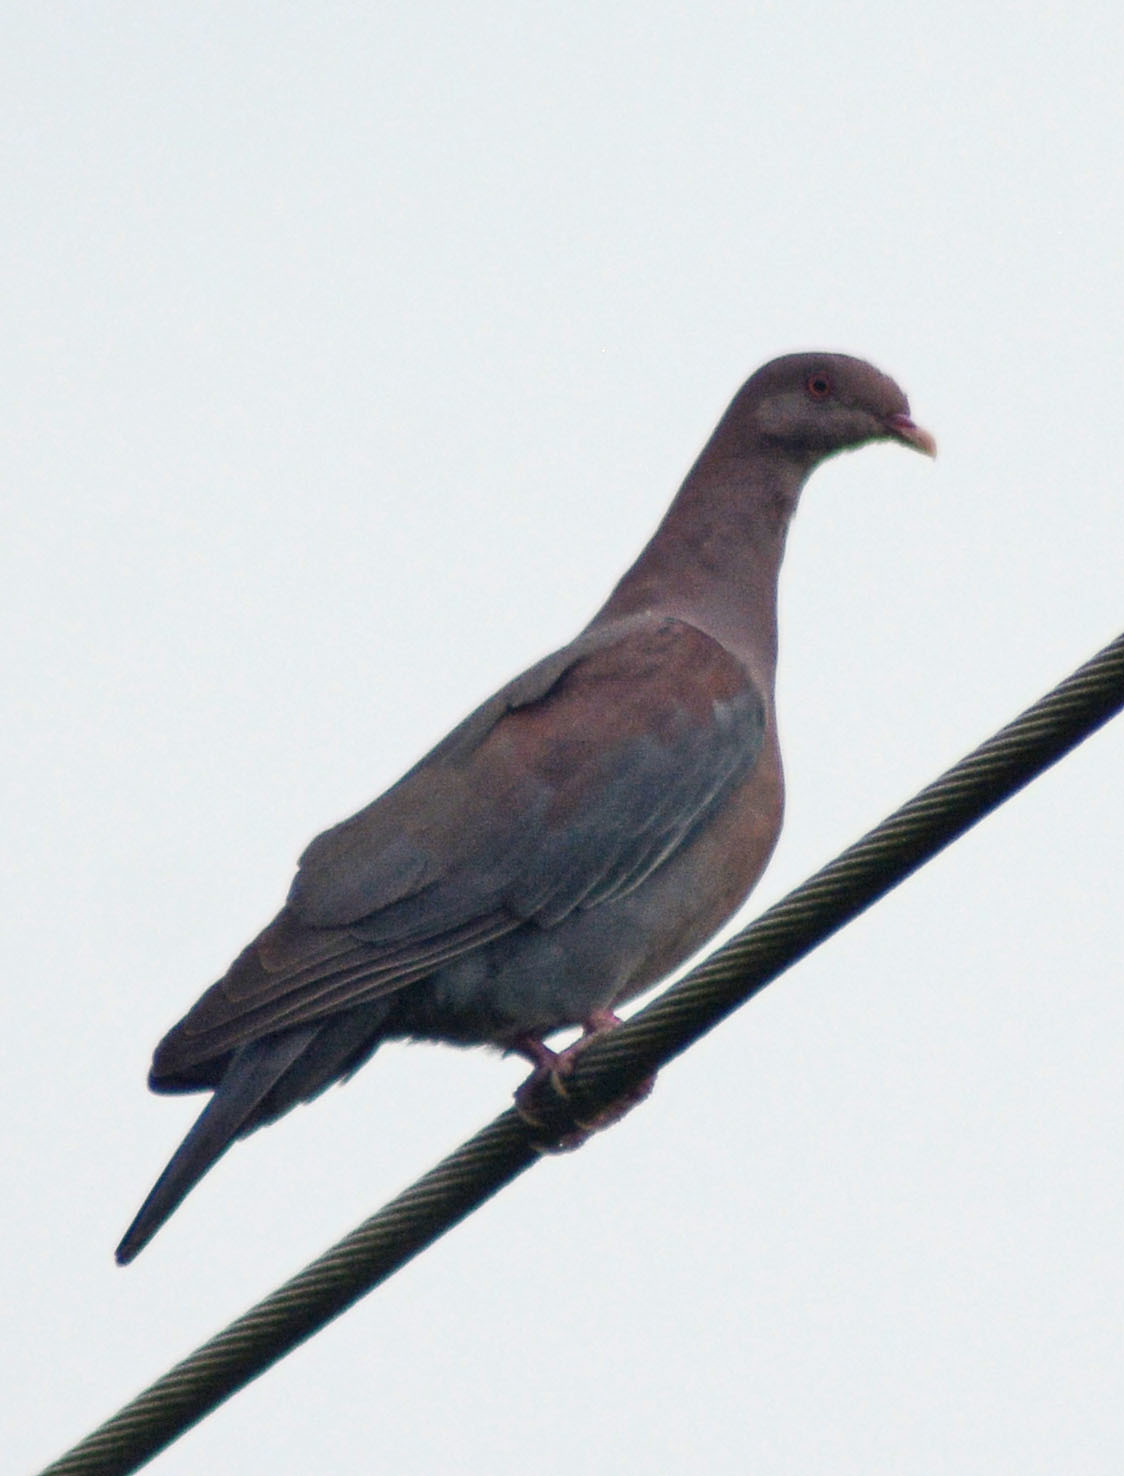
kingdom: Animalia
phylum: Chordata
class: Aves
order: Columbiformes
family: Columbidae
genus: Patagioenas
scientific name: Patagioenas flavirostris
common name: Red-billed pigeon
